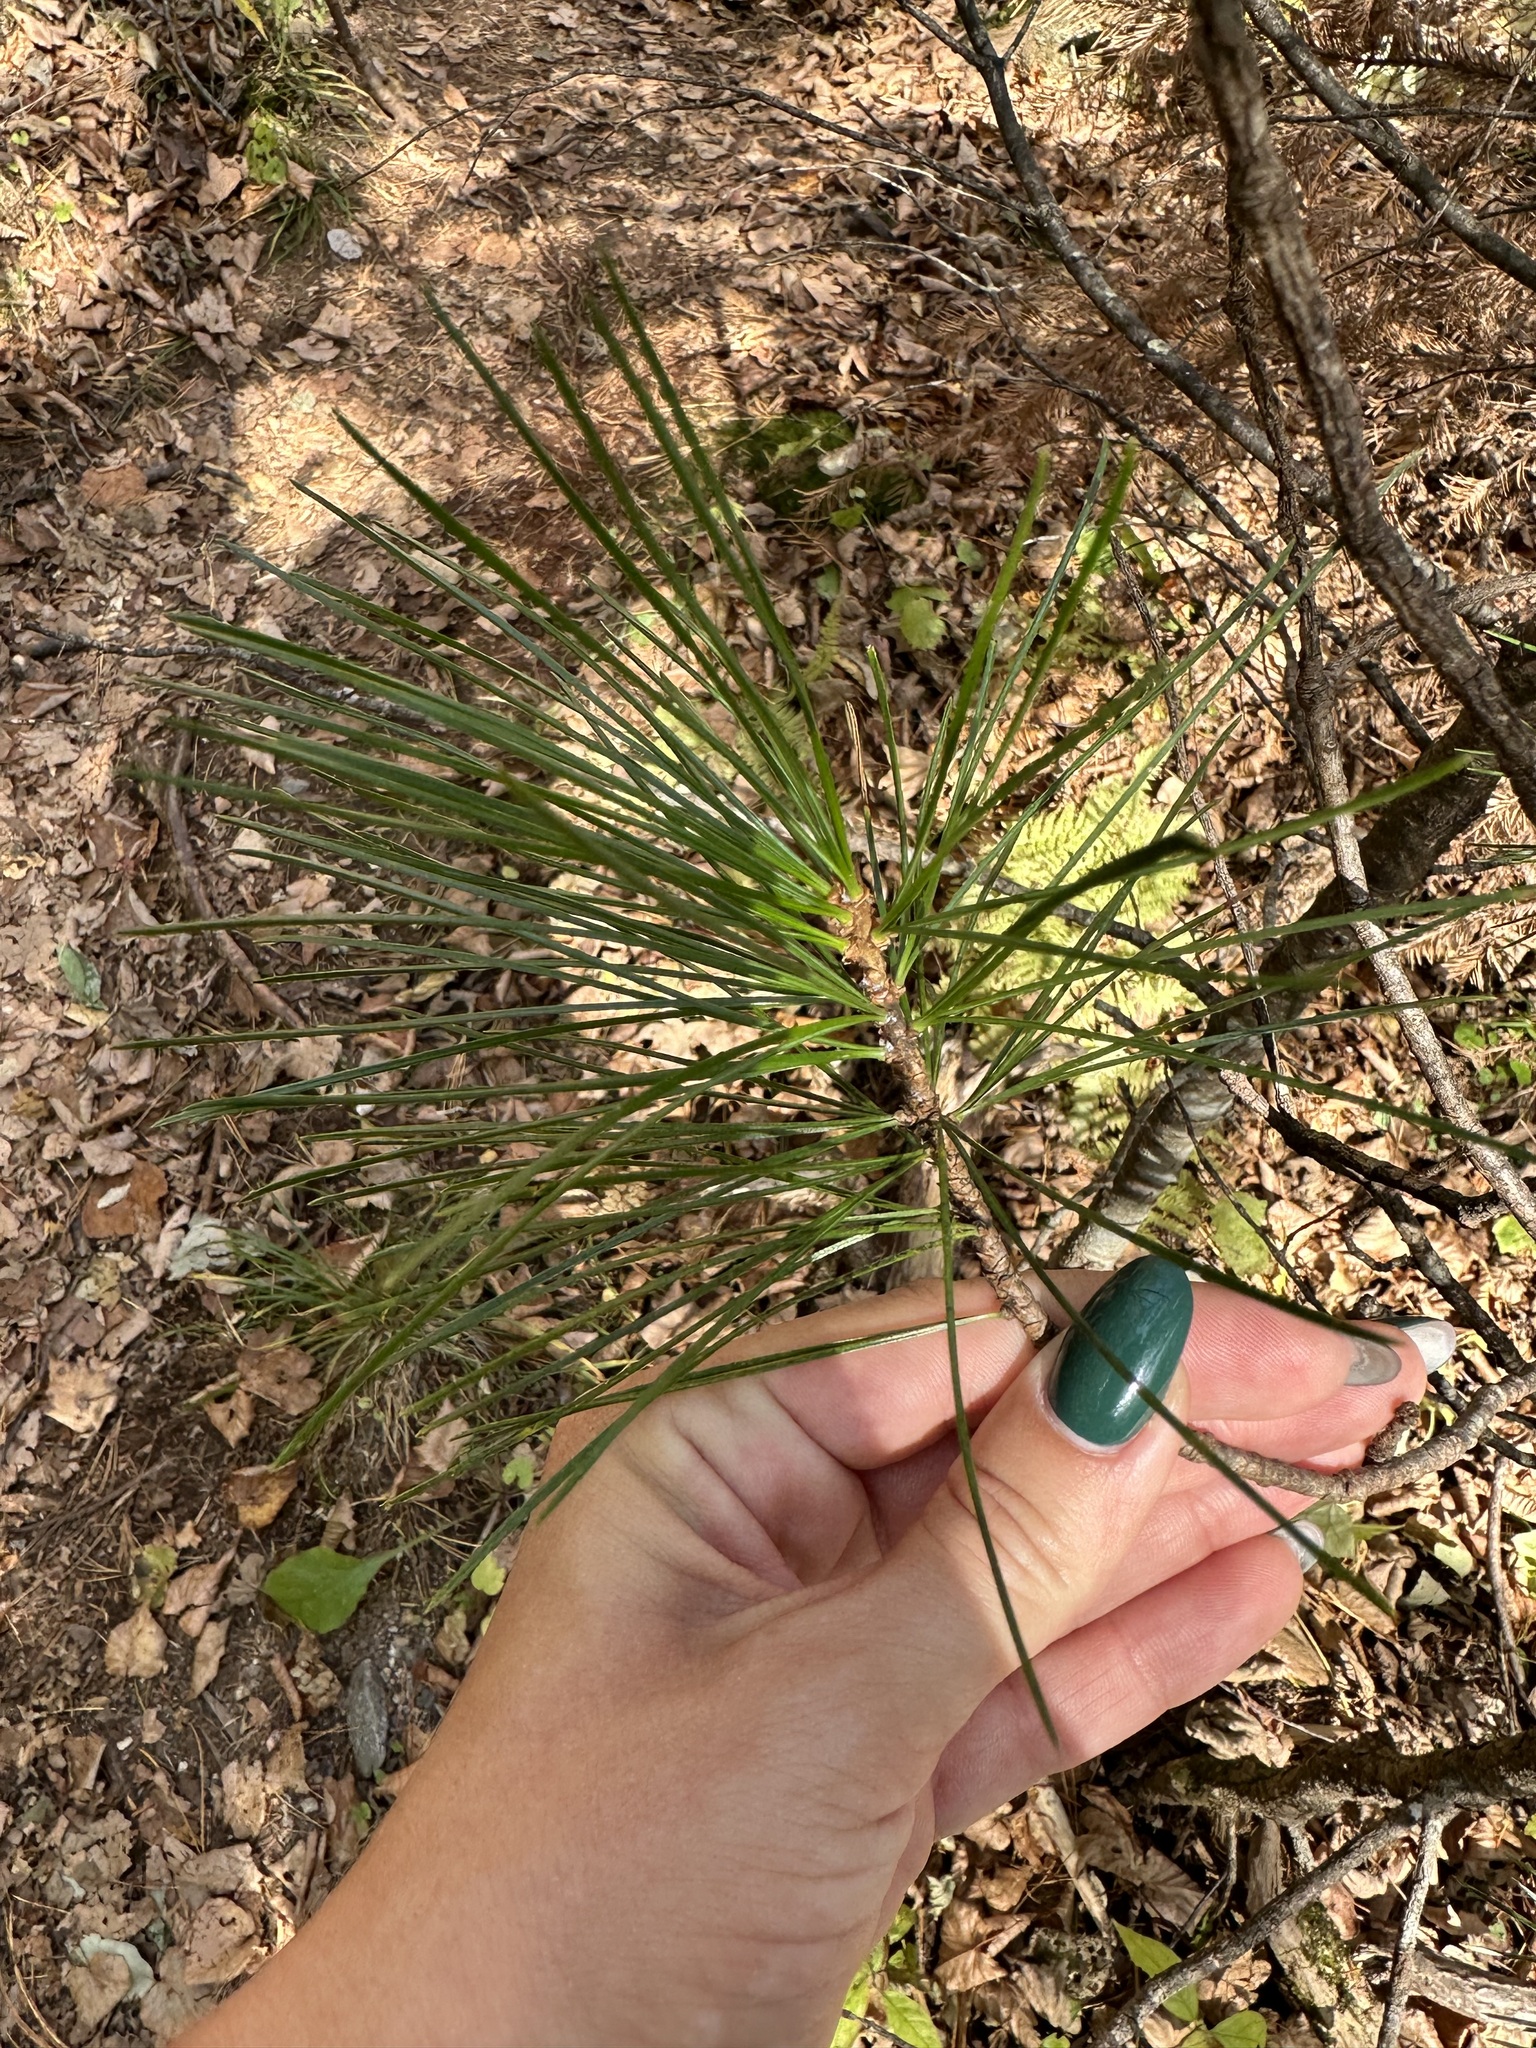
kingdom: Plantae
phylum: Tracheophyta
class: Pinopsida
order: Pinales
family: Pinaceae
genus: Pinus
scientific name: Pinus koraiensis
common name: Korean pine
